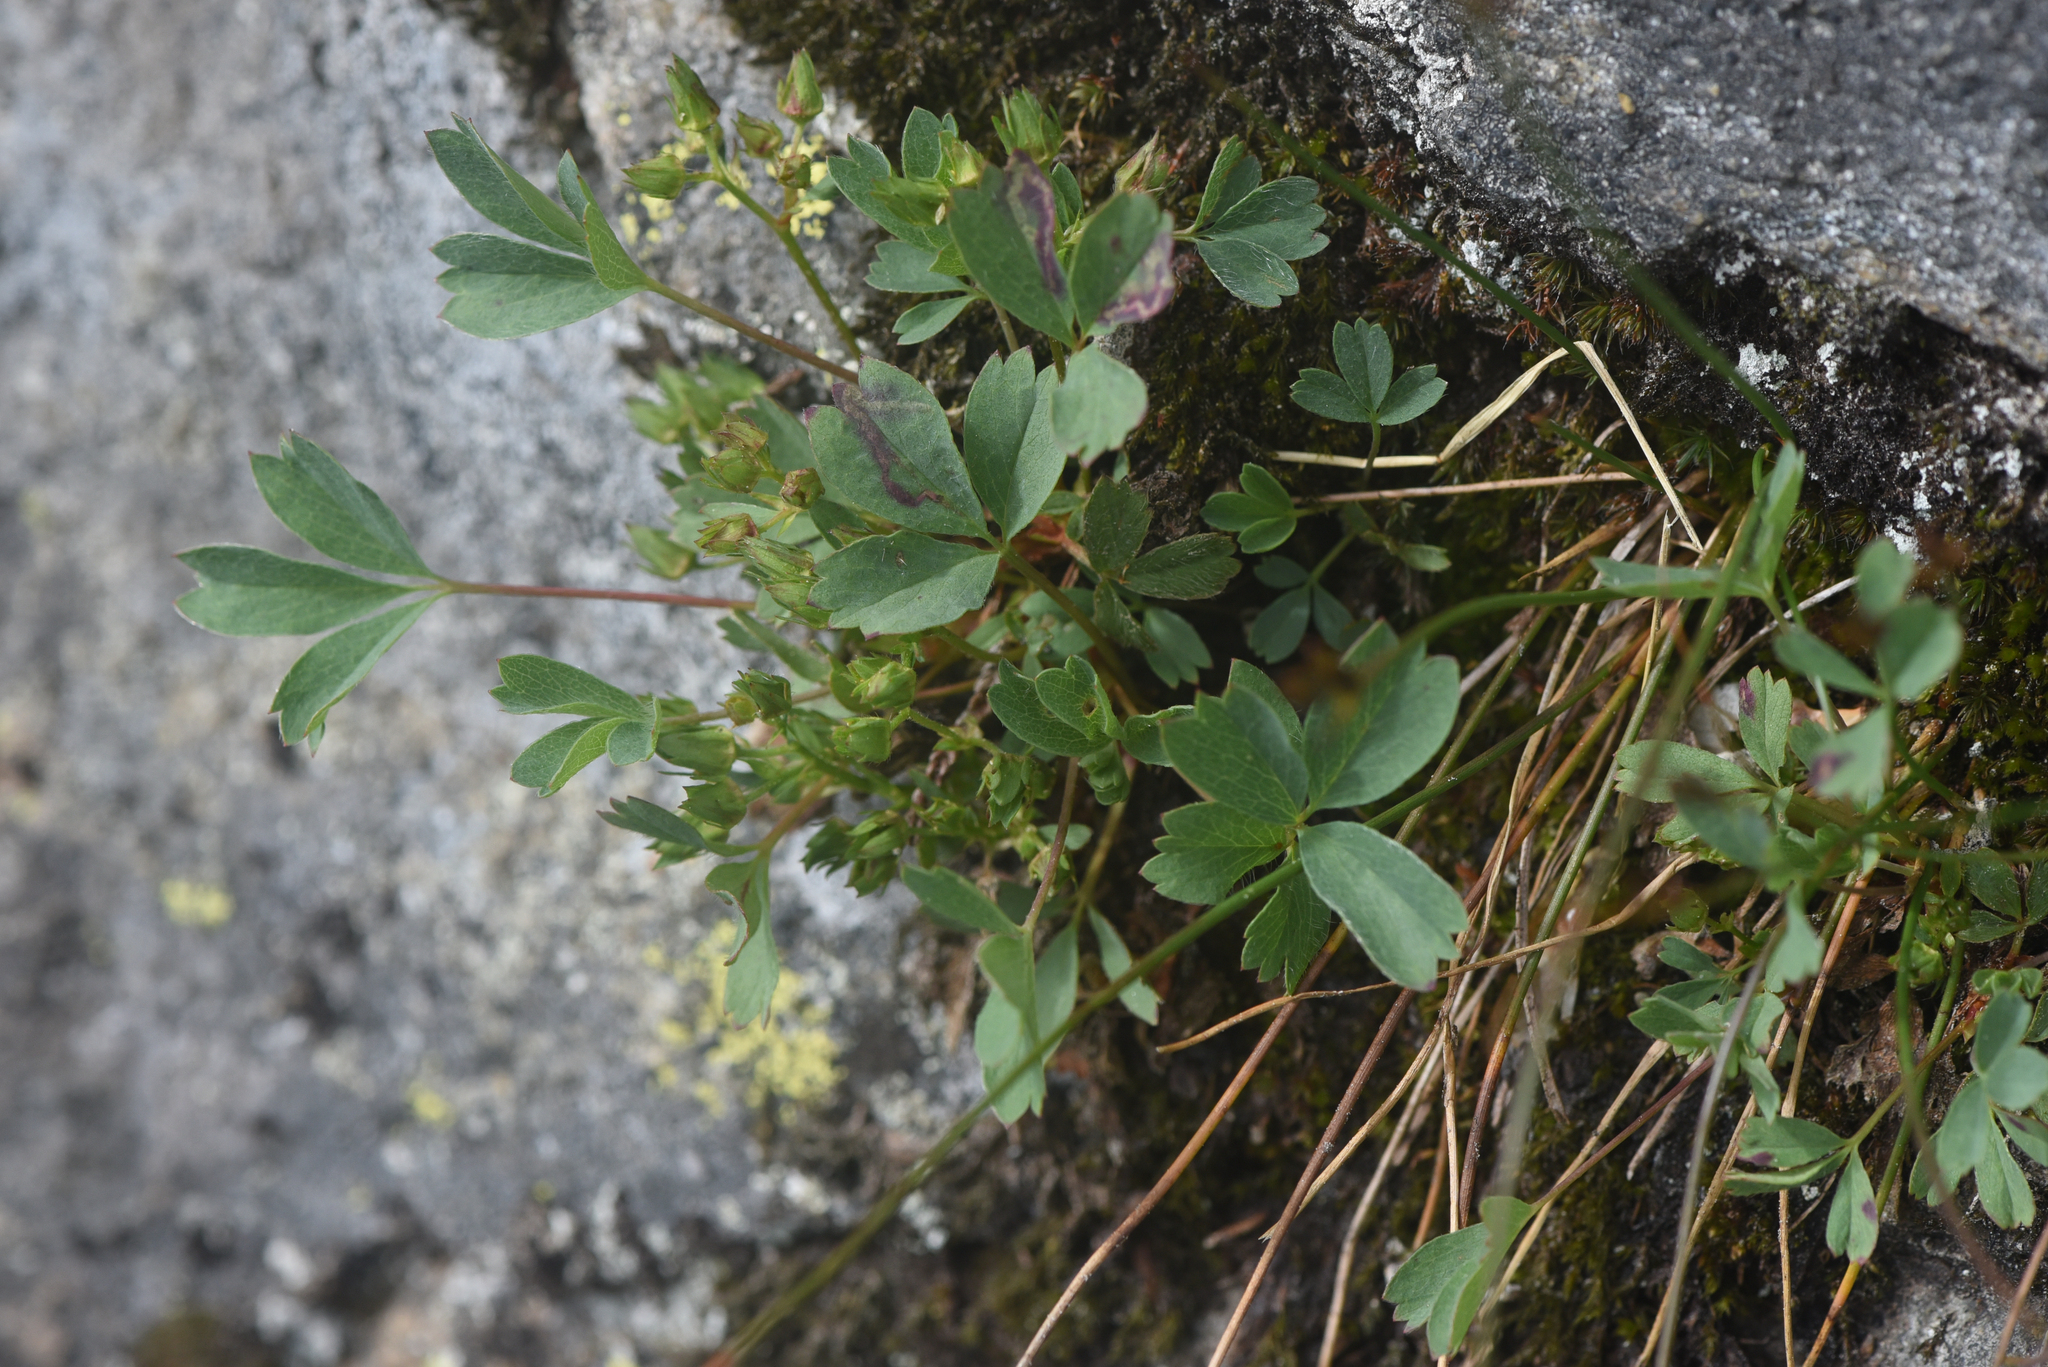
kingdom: Plantae
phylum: Tracheophyta
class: Magnoliopsida
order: Rosales
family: Rosaceae
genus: Sibbaldia
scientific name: Sibbaldia procumbens
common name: Creeping sibbaldia
